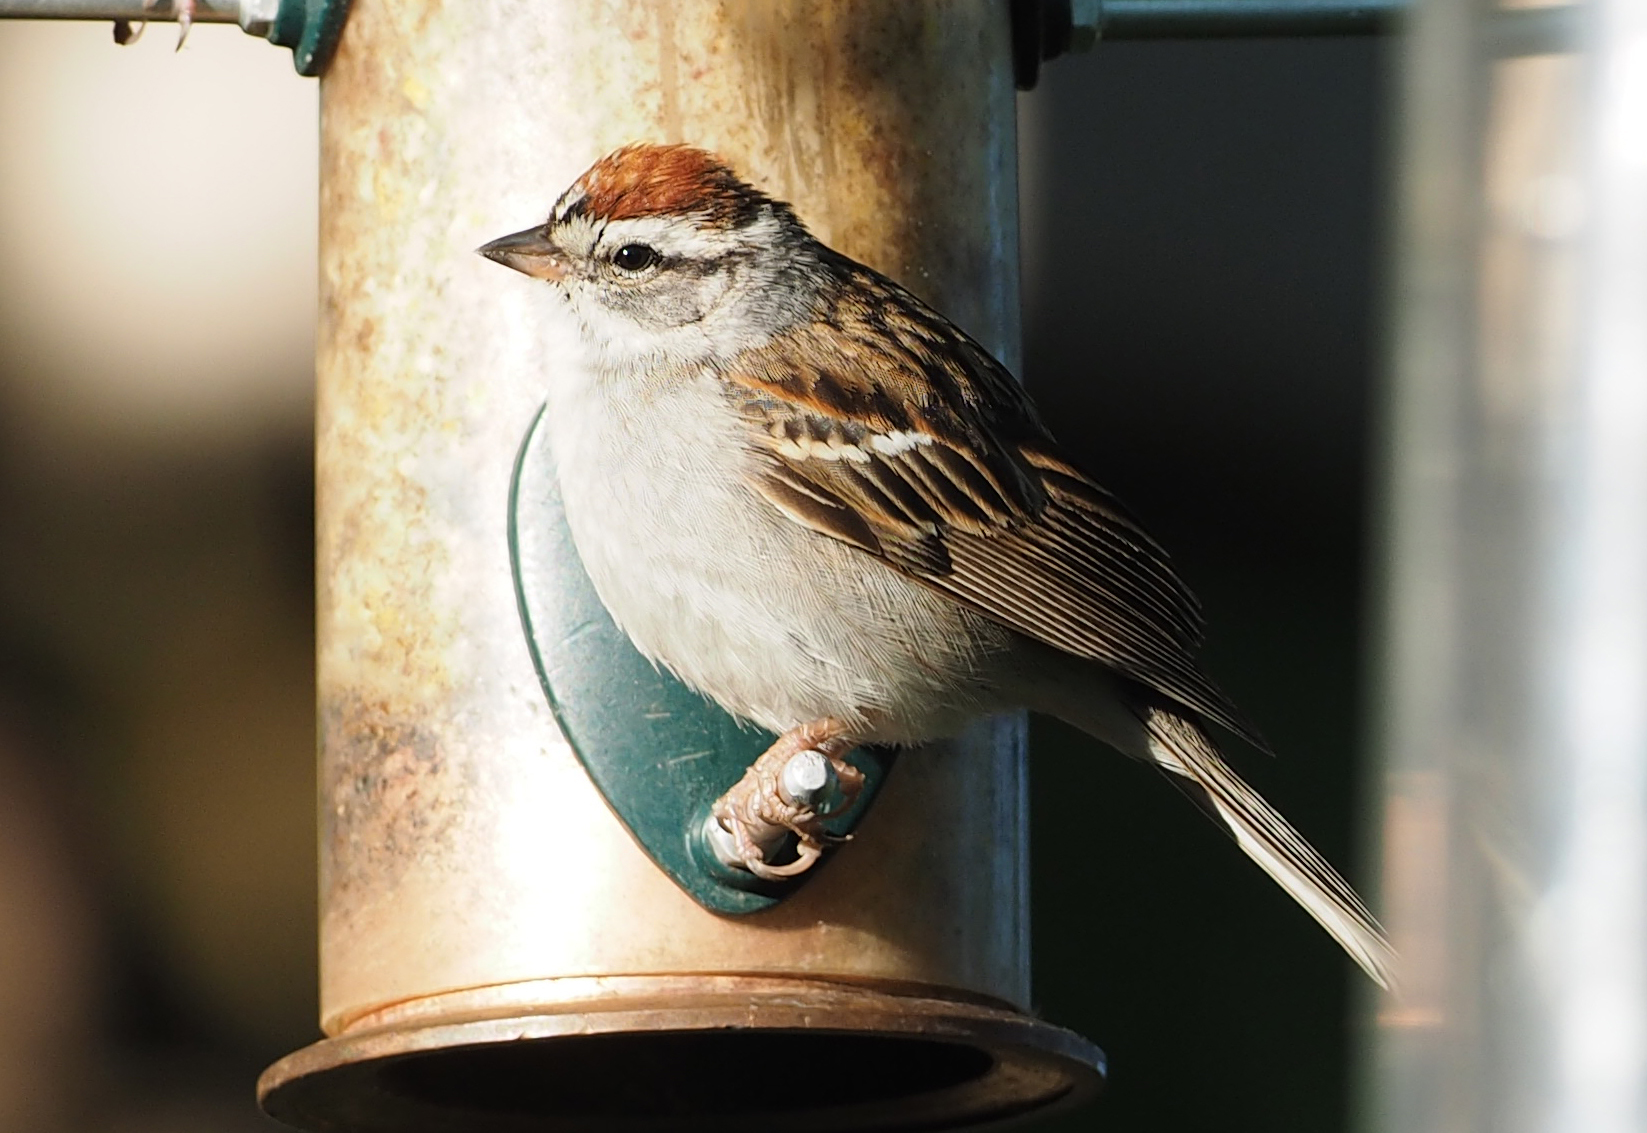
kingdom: Animalia
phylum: Chordata
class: Aves
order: Passeriformes
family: Passerellidae
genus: Spizella
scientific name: Spizella passerina
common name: Chipping sparrow
